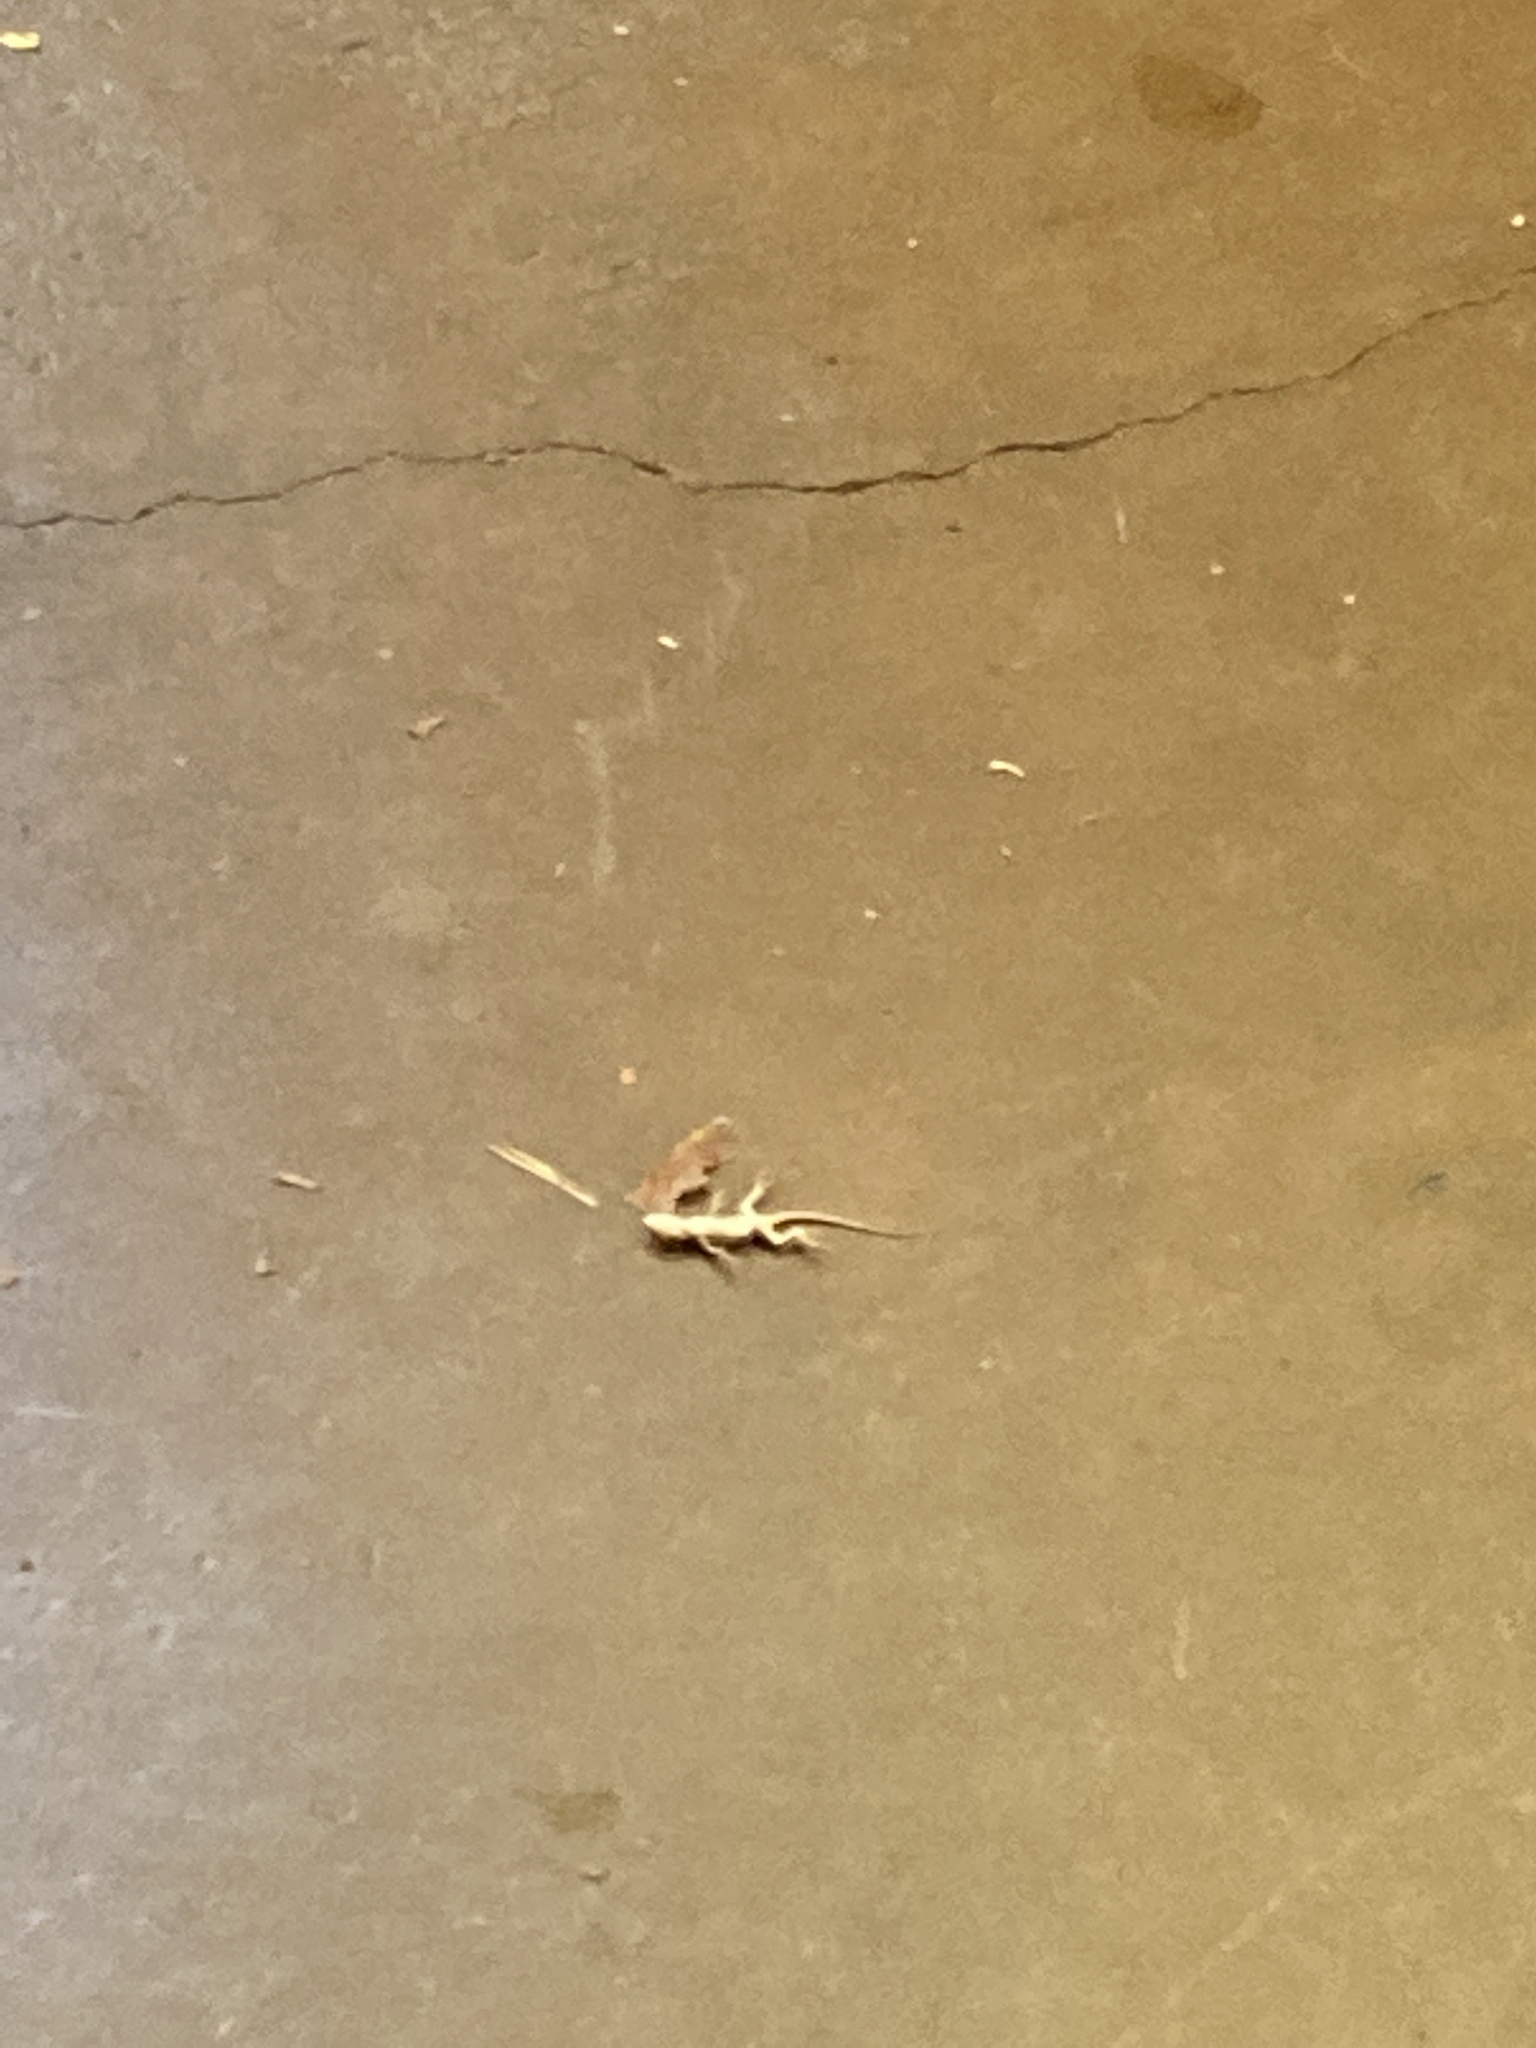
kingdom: Animalia
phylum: Chordata
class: Squamata
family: Phrynosomatidae
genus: Sceloporus
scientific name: Sceloporus occidentalis
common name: Western fence lizard
